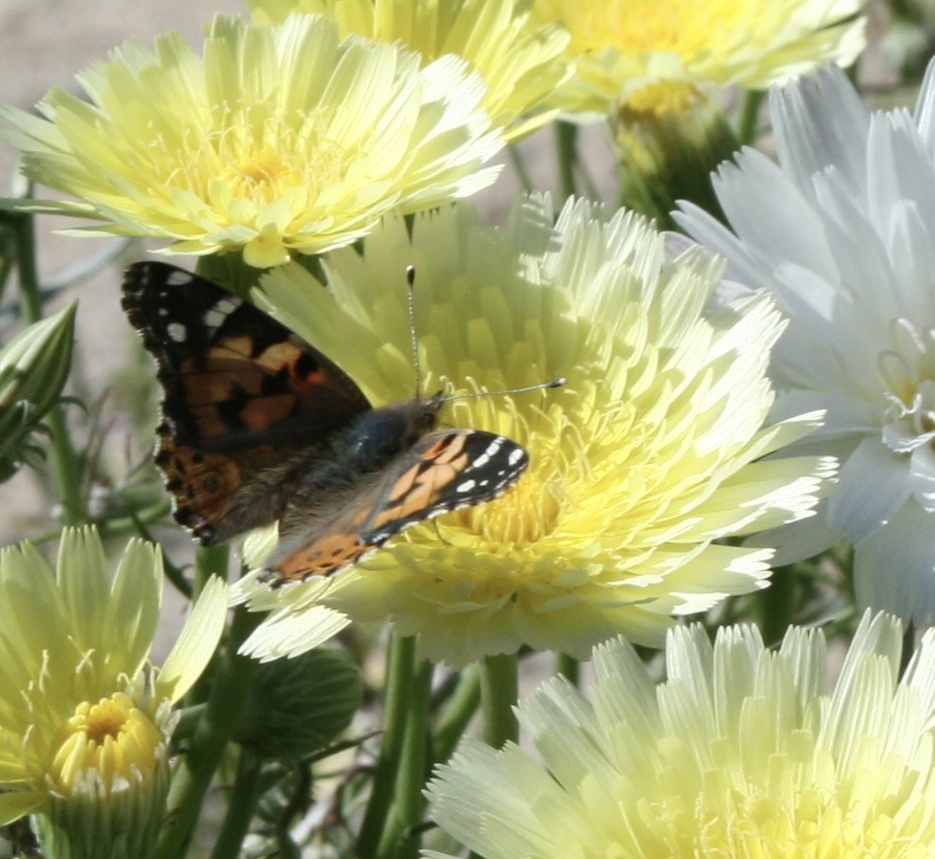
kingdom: Animalia
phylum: Arthropoda
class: Insecta
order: Lepidoptera
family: Nymphalidae
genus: Vanessa
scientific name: Vanessa cardui
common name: Painted lady
